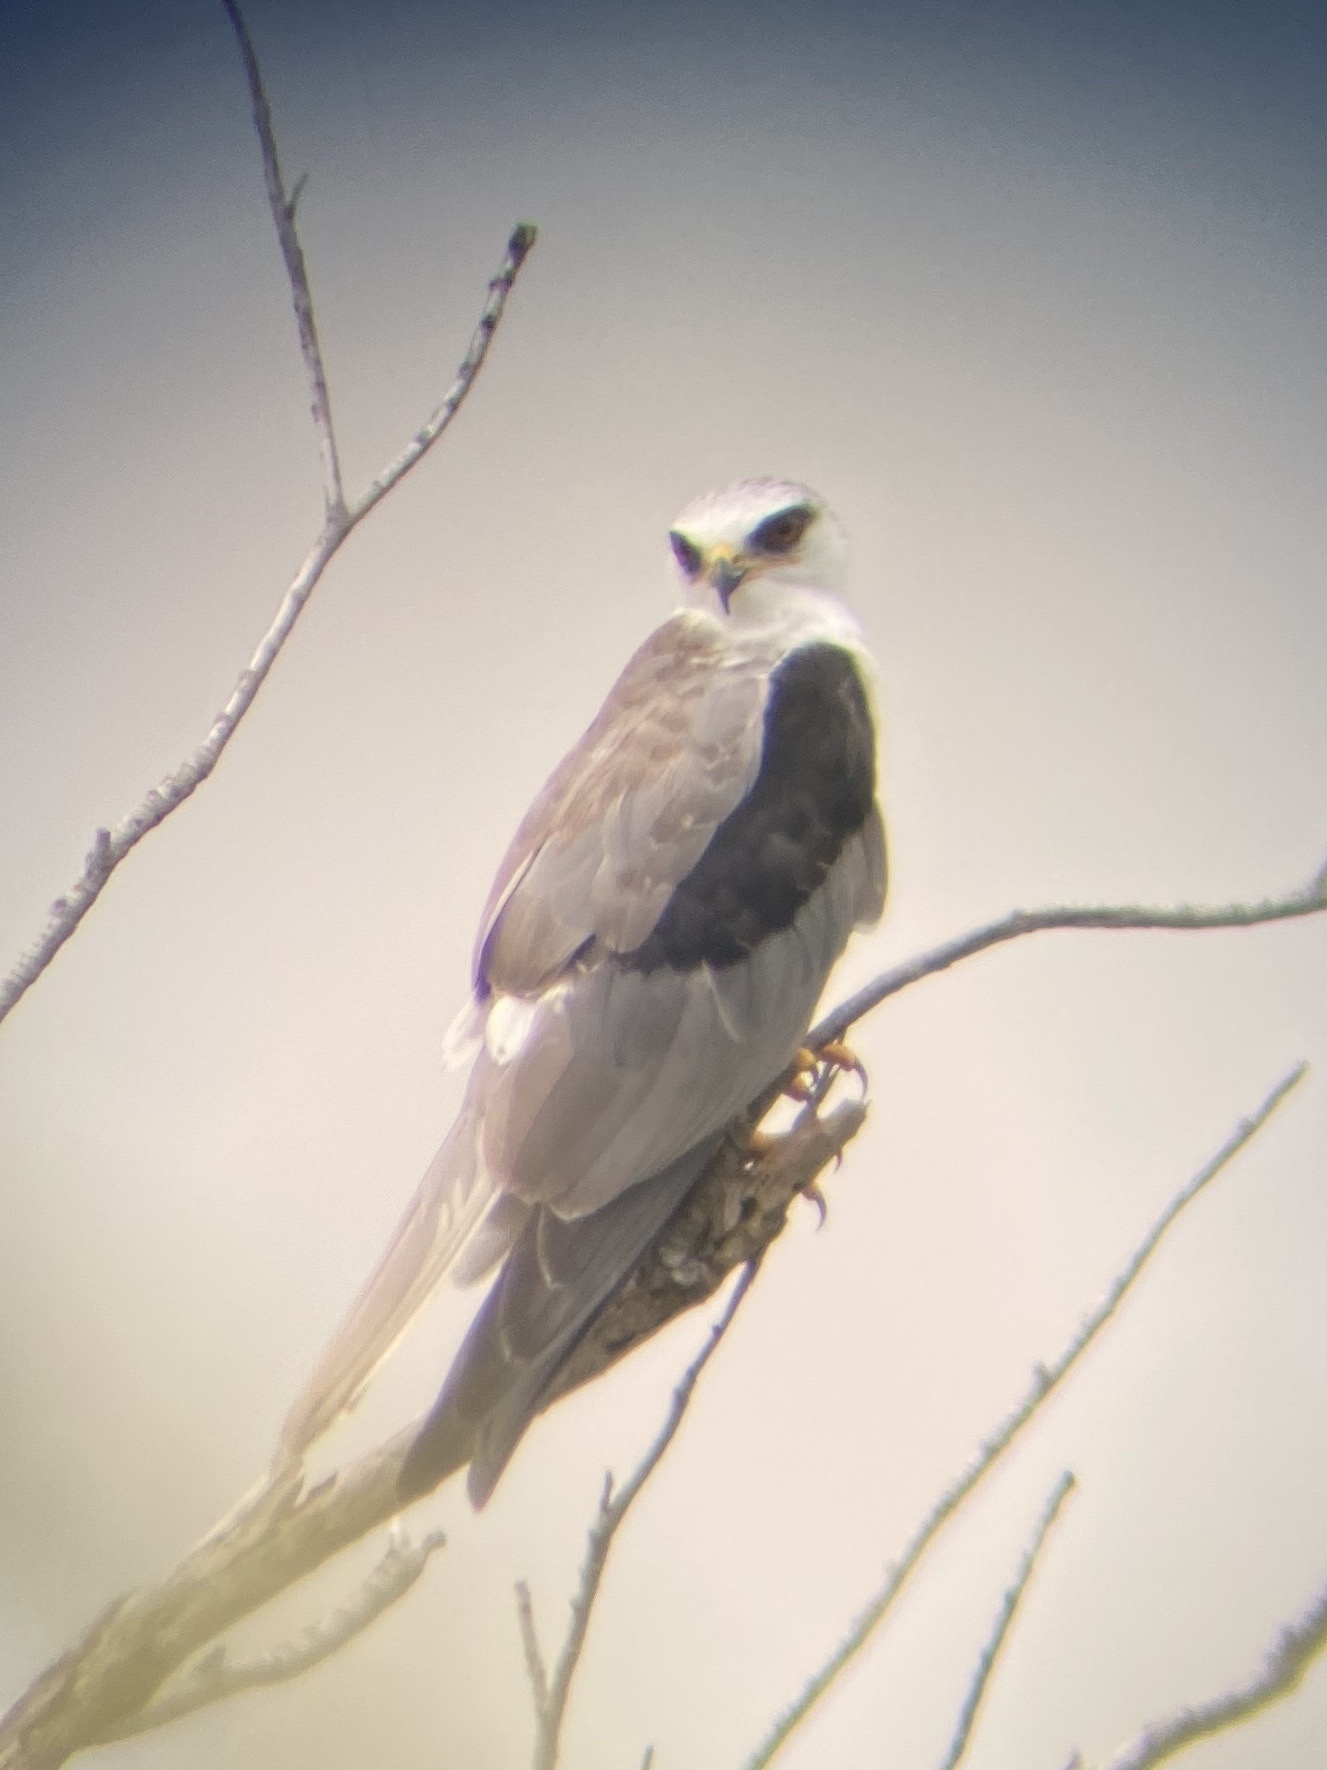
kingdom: Animalia
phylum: Chordata
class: Aves
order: Accipitriformes
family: Accipitridae
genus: Elanus
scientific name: Elanus leucurus
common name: White-tailed kite
